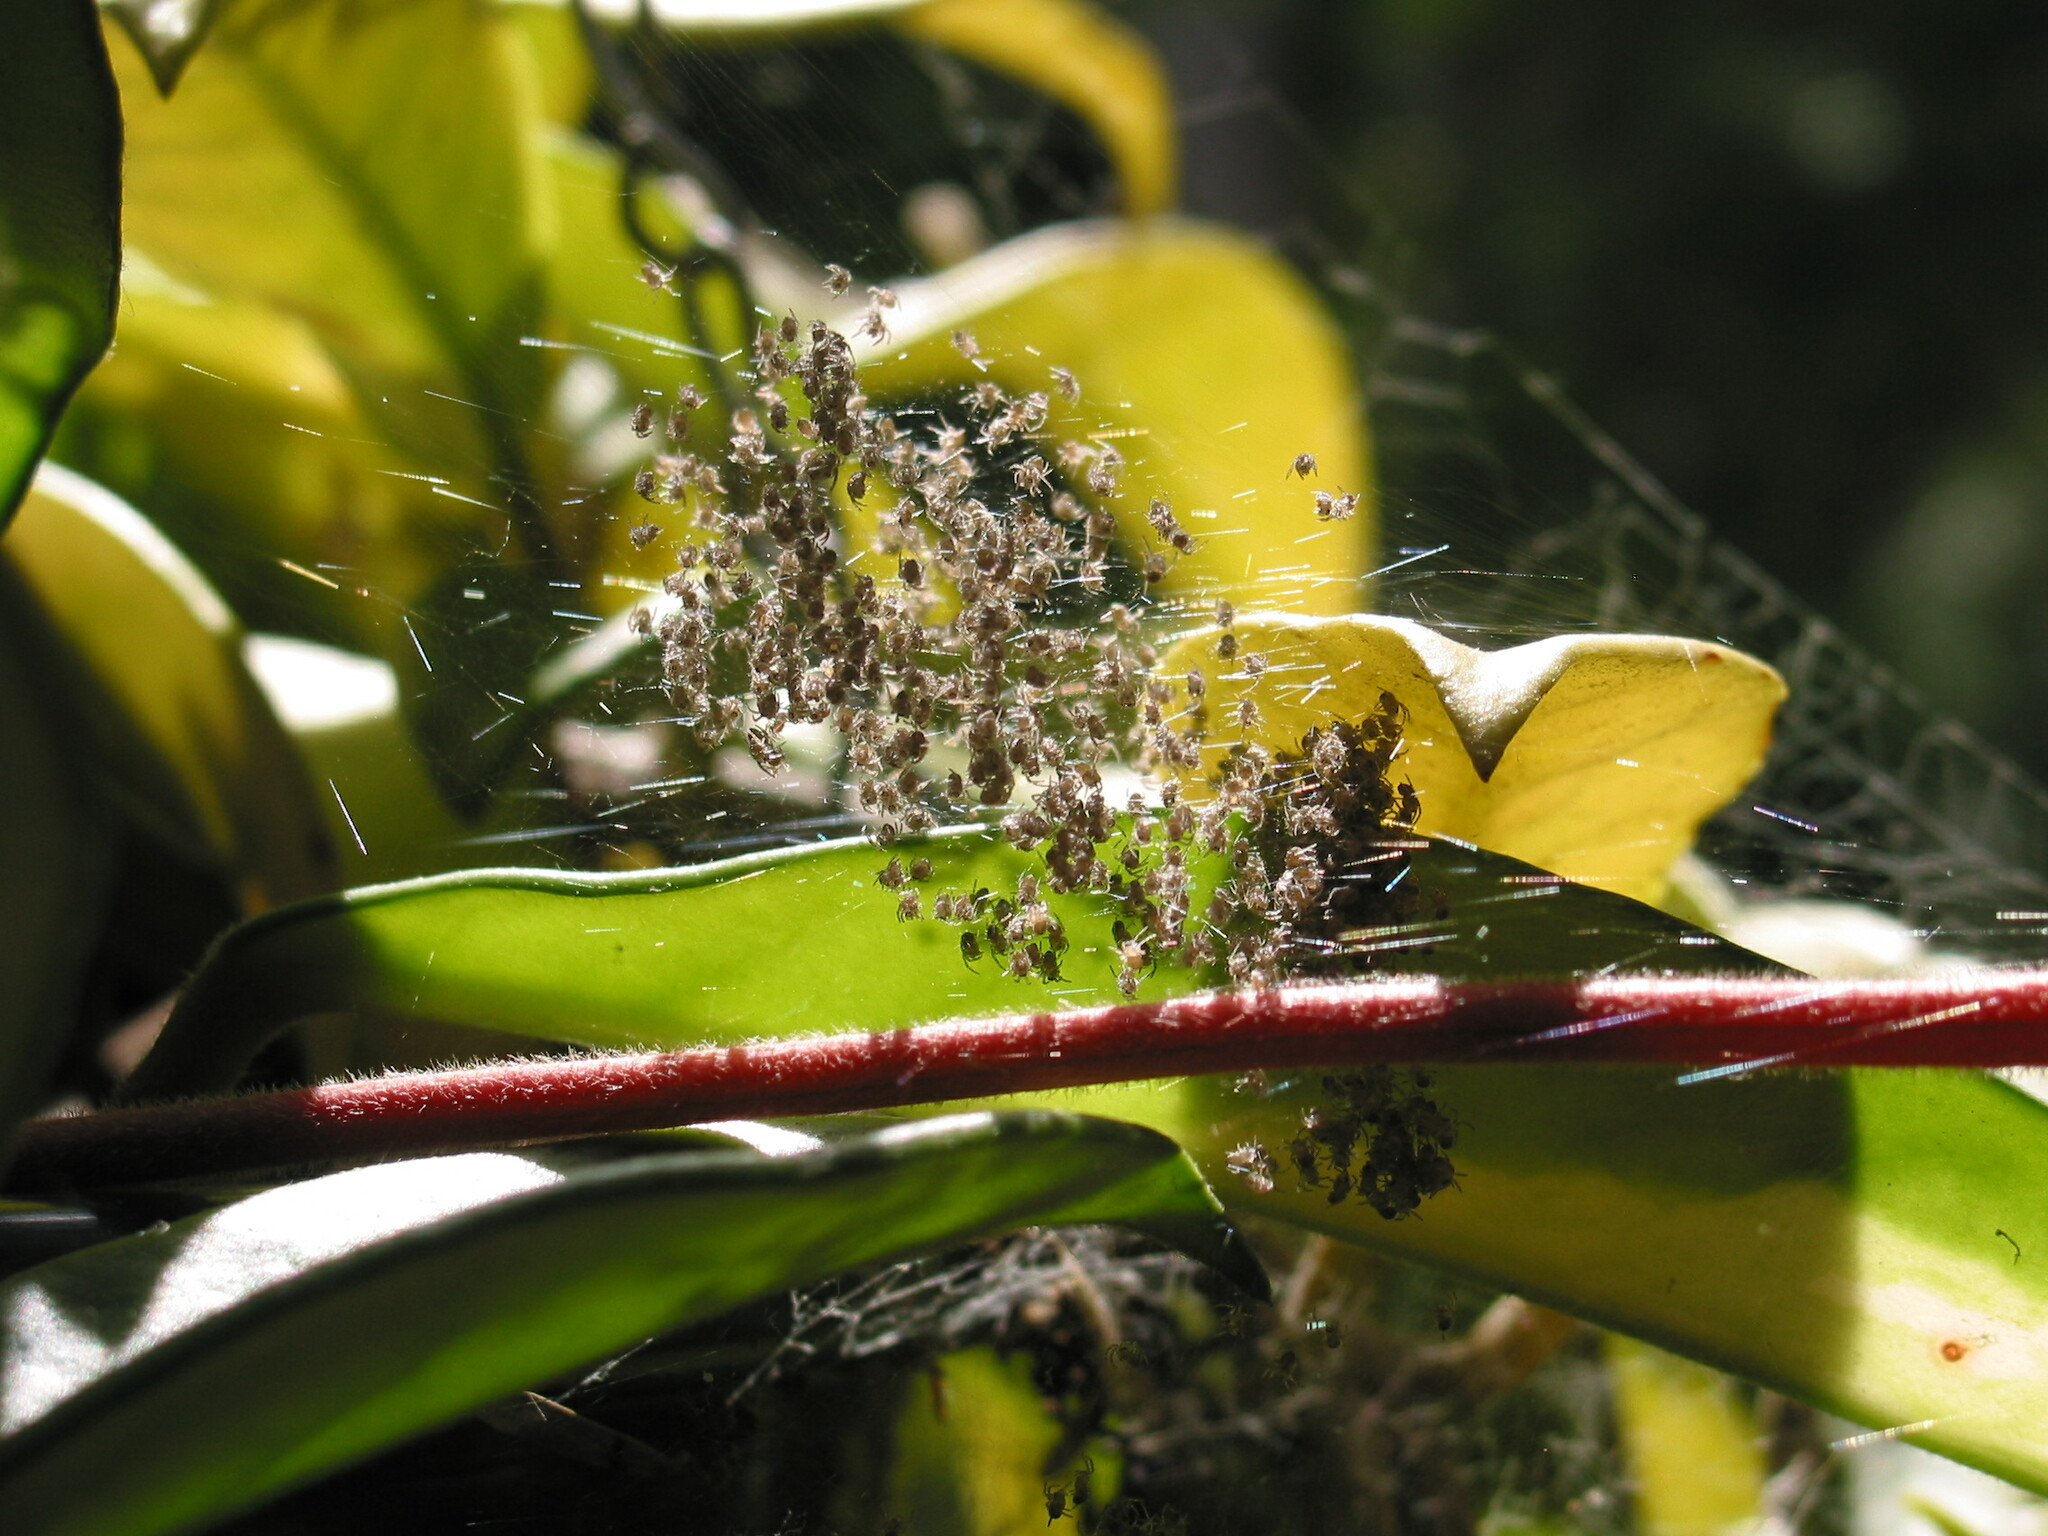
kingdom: Animalia
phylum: Arthropoda
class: Arachnida
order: Araneae
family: Araneidae
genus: Argiope
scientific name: Argiope keyserlingi
